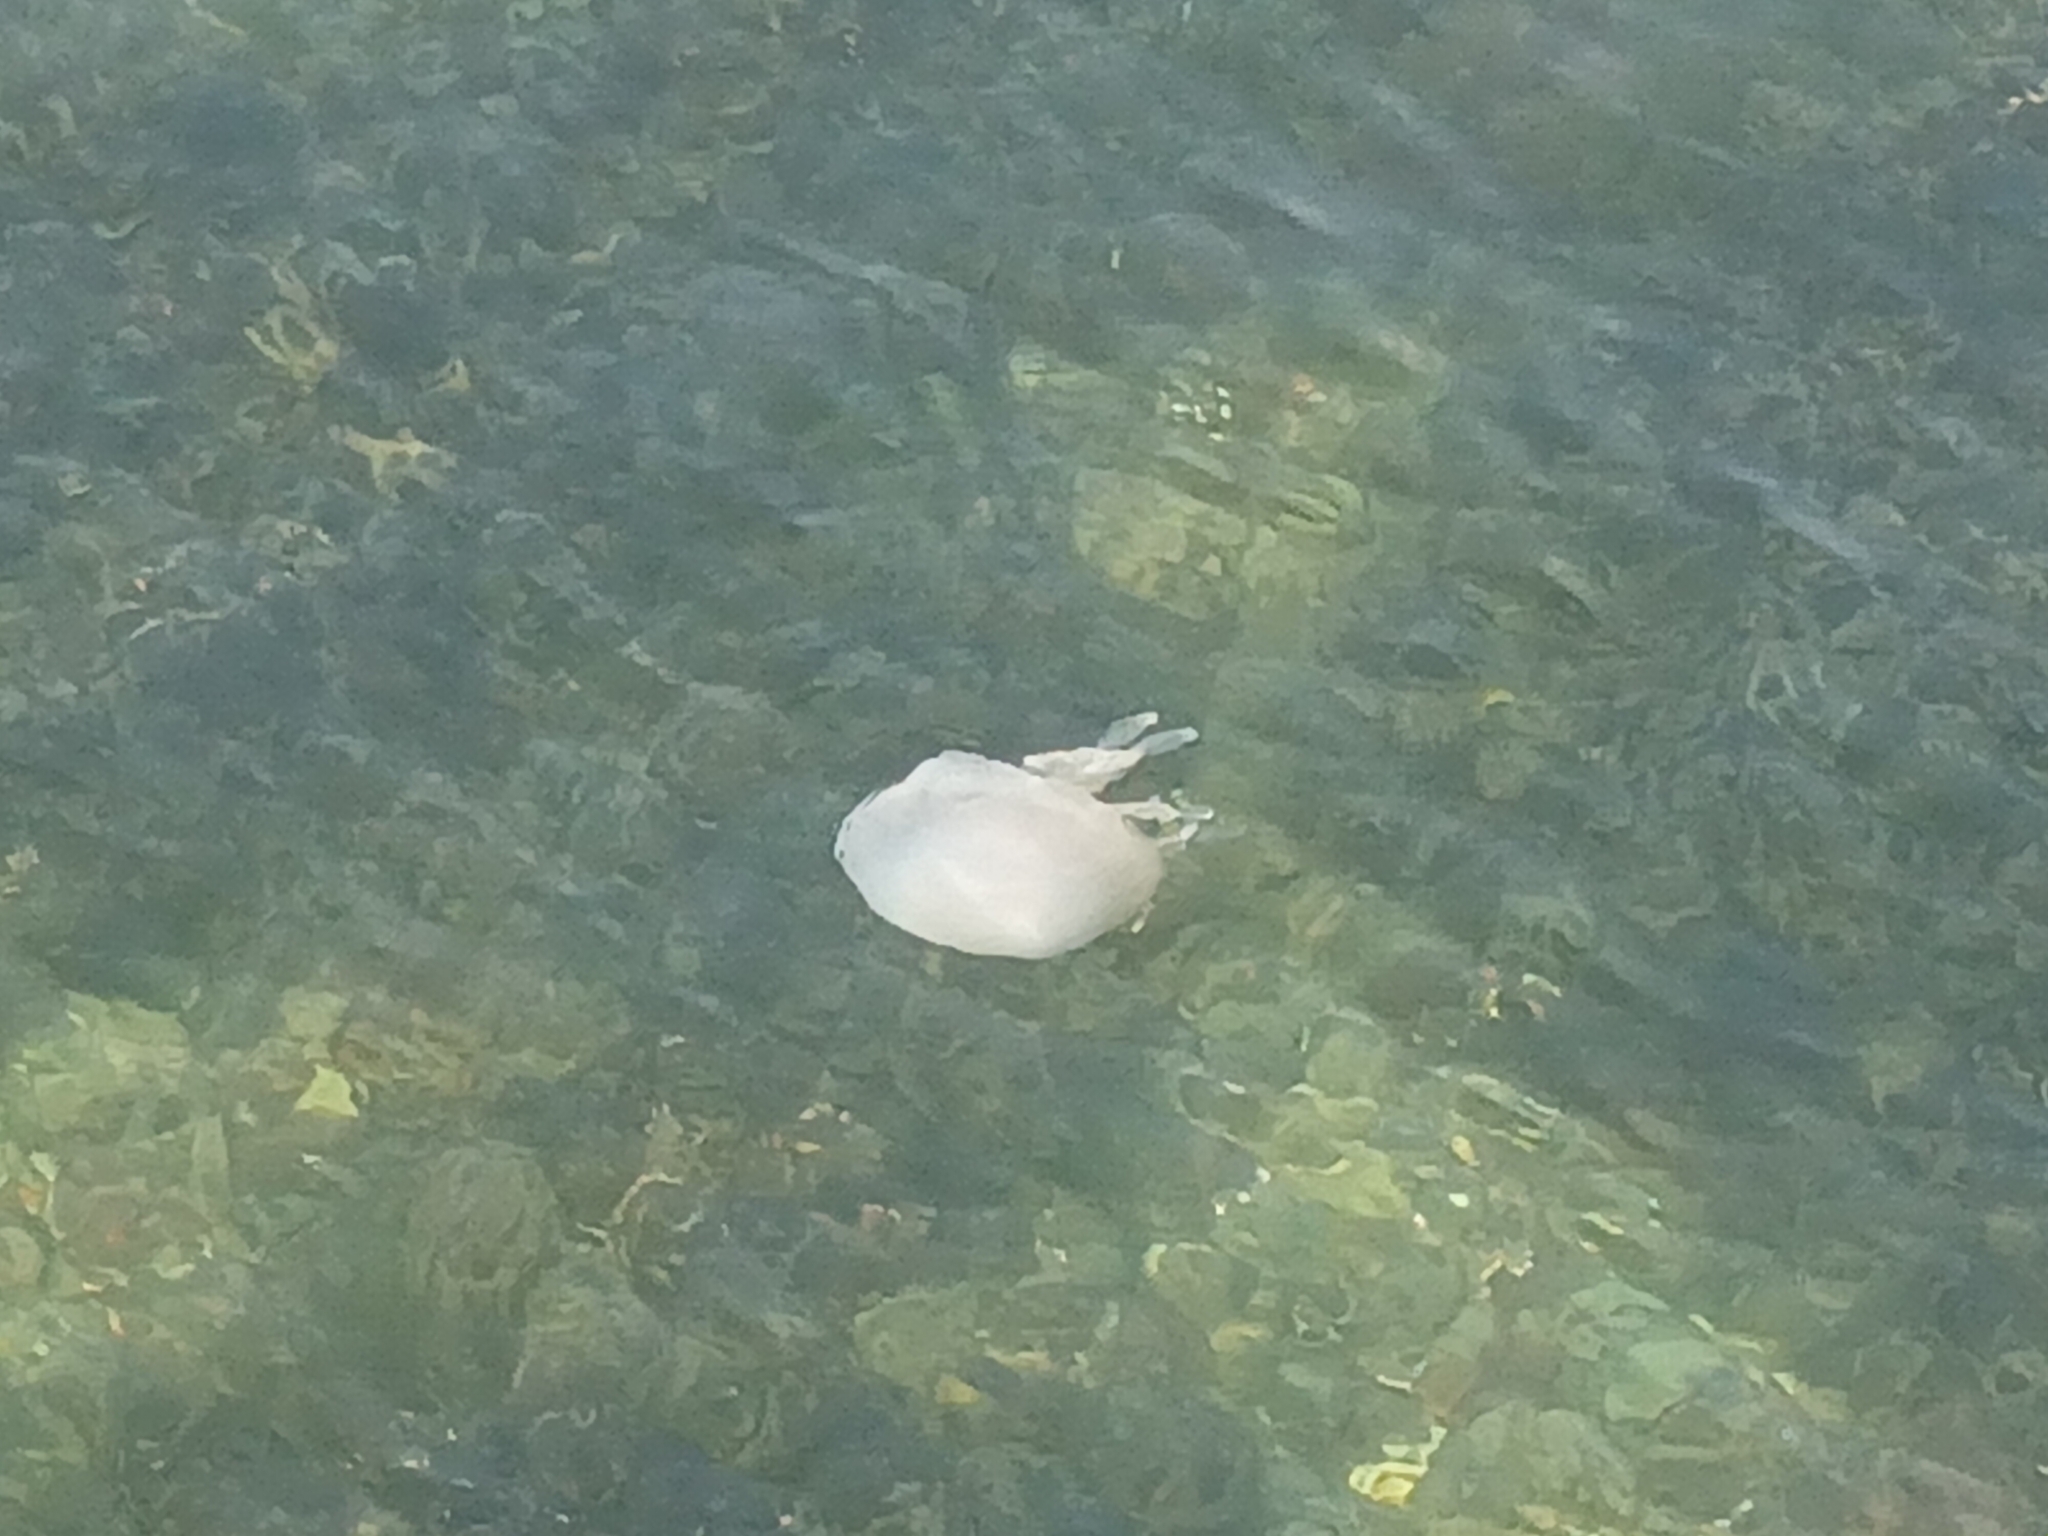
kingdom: Animalia
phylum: Cnidaria
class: Scyphozoa
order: Rhizostomeae
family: Rhizostomatidae
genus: Rhizostoma
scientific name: Rhizostoma octopus
